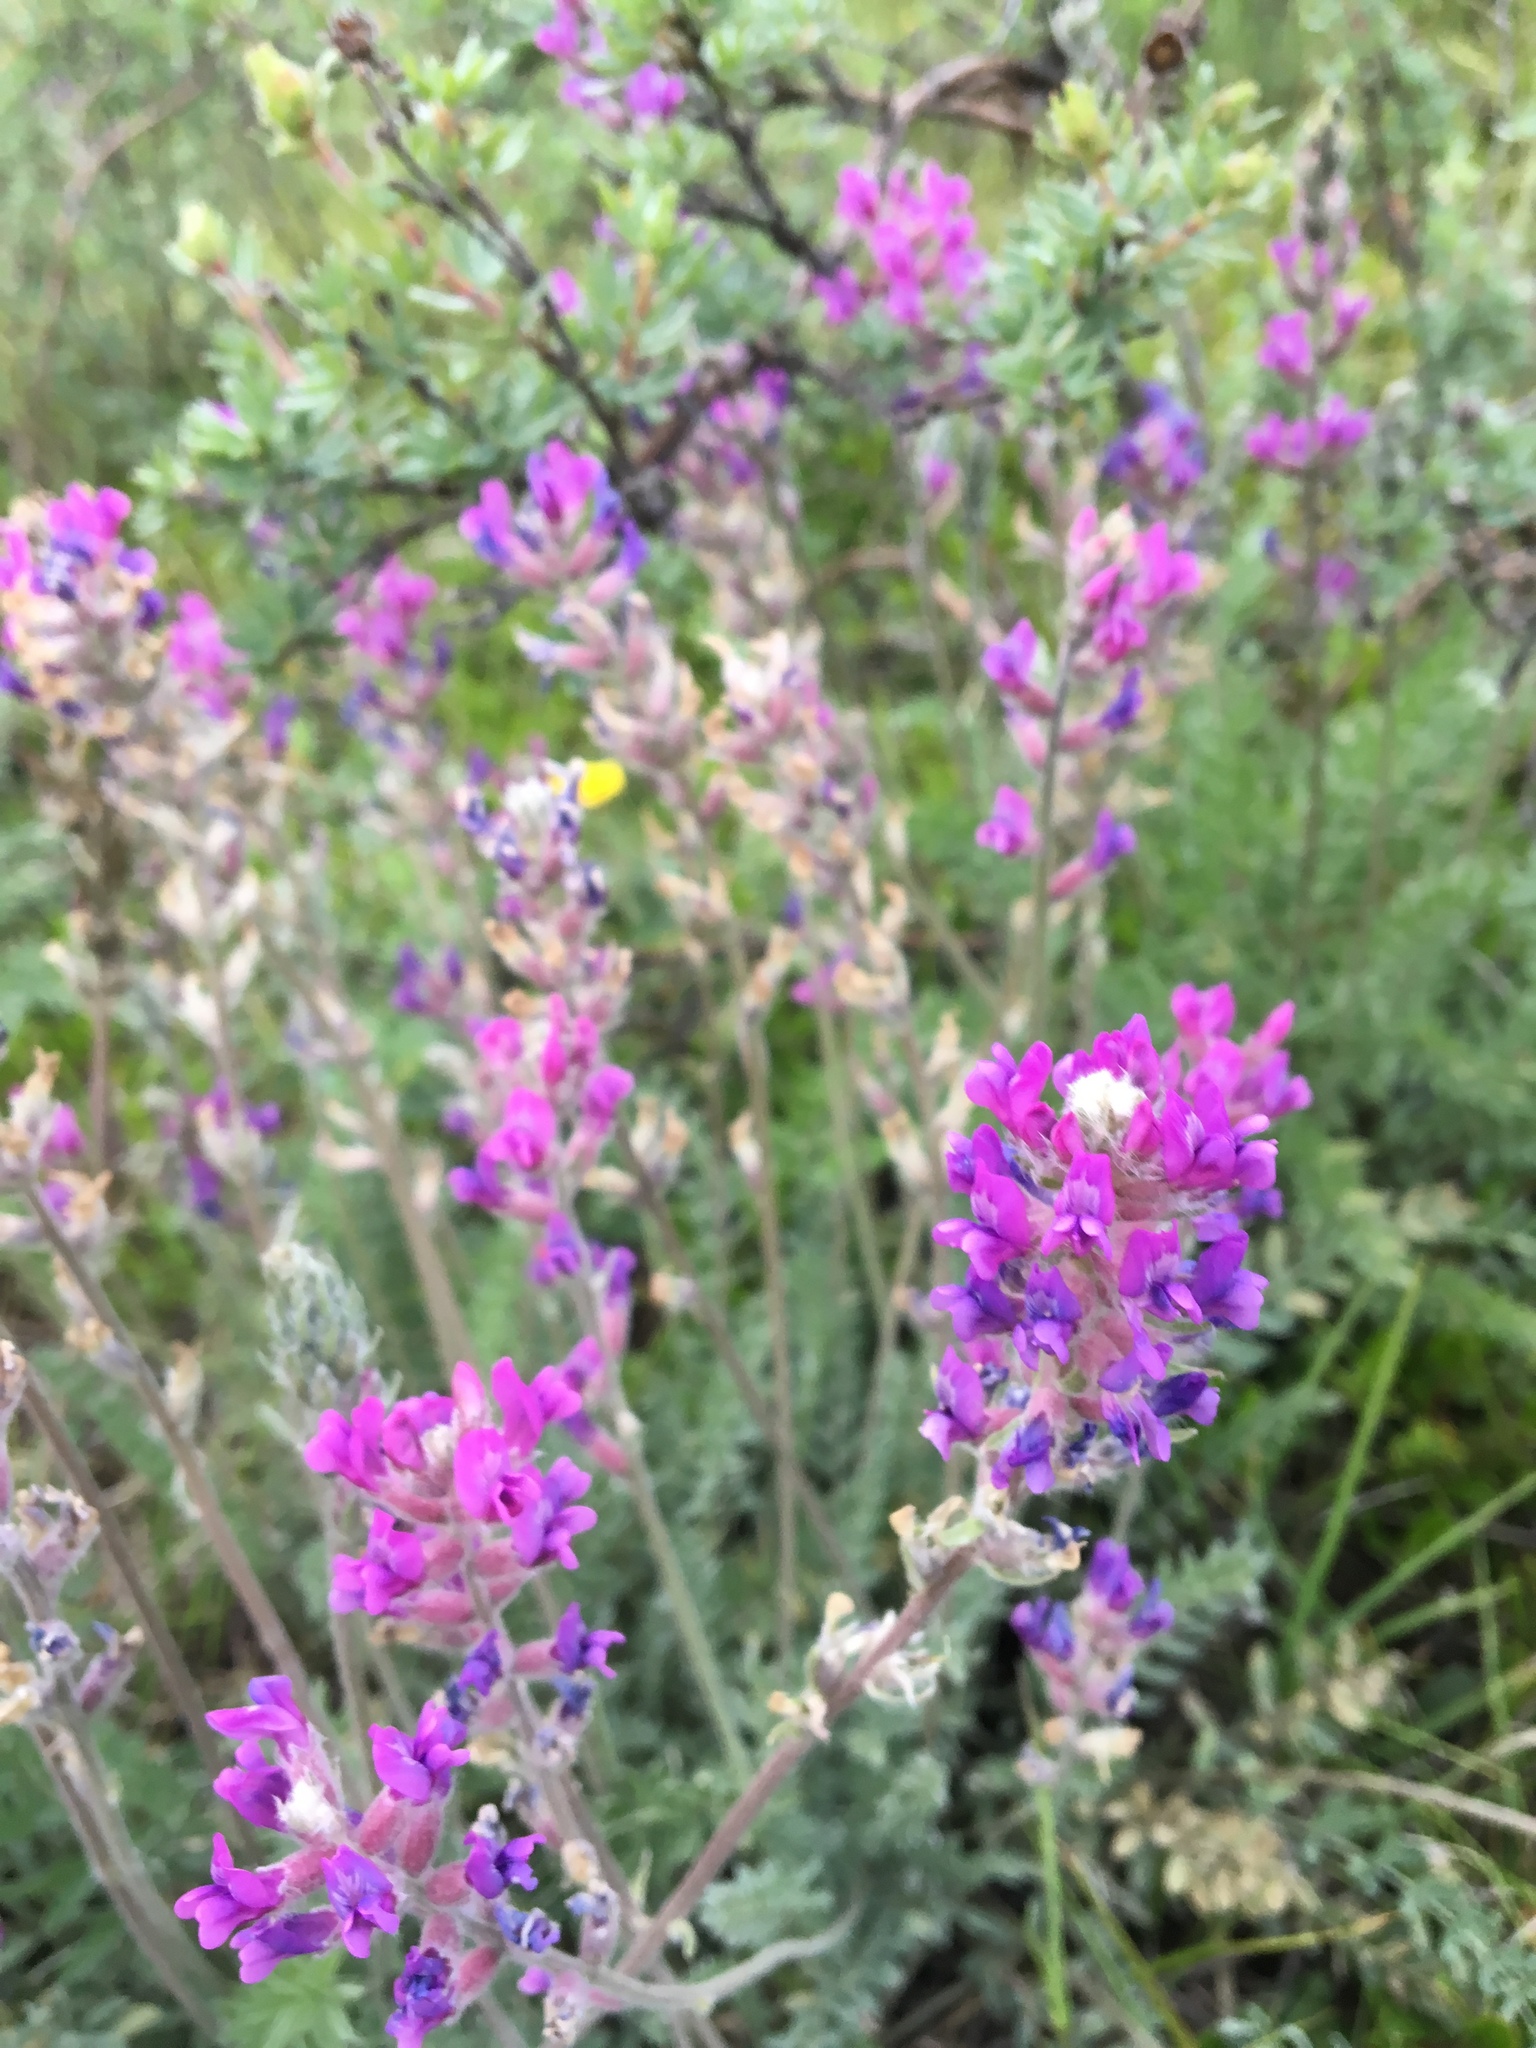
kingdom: Plantae
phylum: Tracheophyta
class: Magnoliopsida
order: Fabales
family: Fabaceae
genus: Oxytropis
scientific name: Oxytropis splendens
